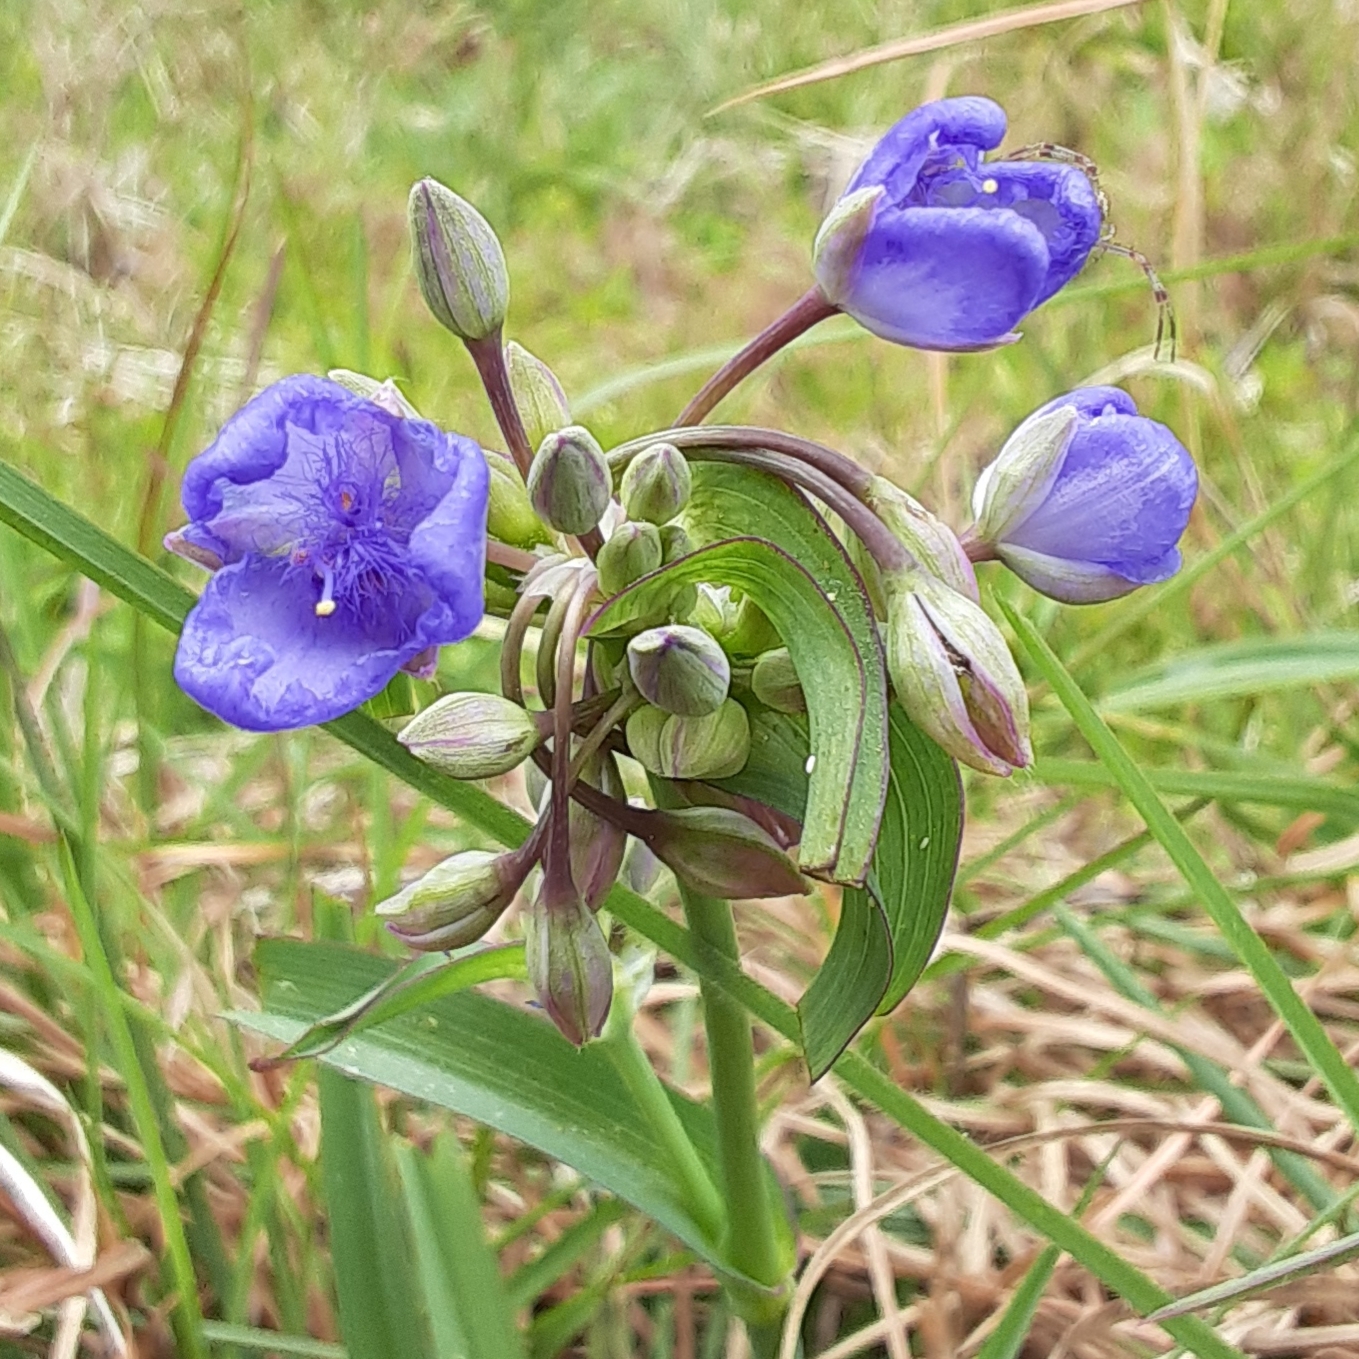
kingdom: Plantae
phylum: Tracheophyta
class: Liliopsida
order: Commelinales
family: Commelinaceae
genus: Tradescantia
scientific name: Tradescantia ohiensis
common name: Ohio spiderwort
